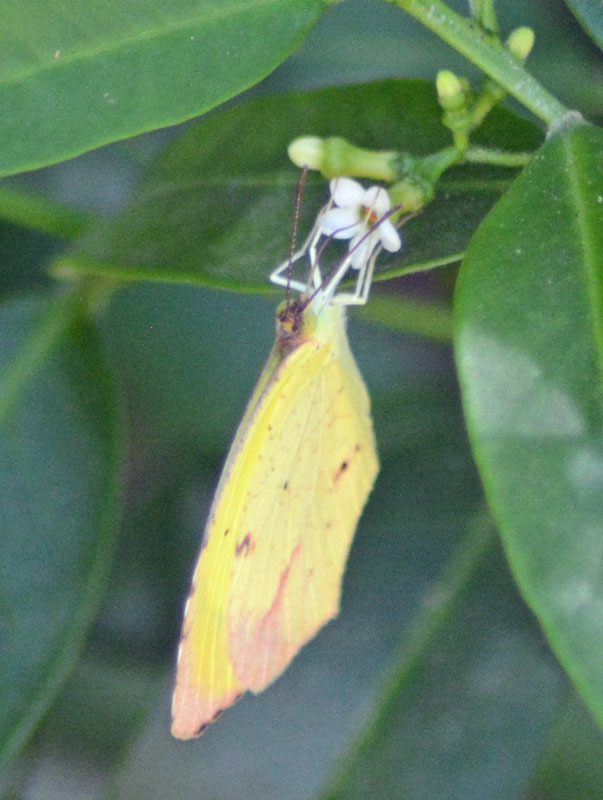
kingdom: Animalia
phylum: Arthropoda
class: Insecta
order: Lepidoptera
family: Pieridae
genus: Abaeis
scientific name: Abaeis boisduvaliana
